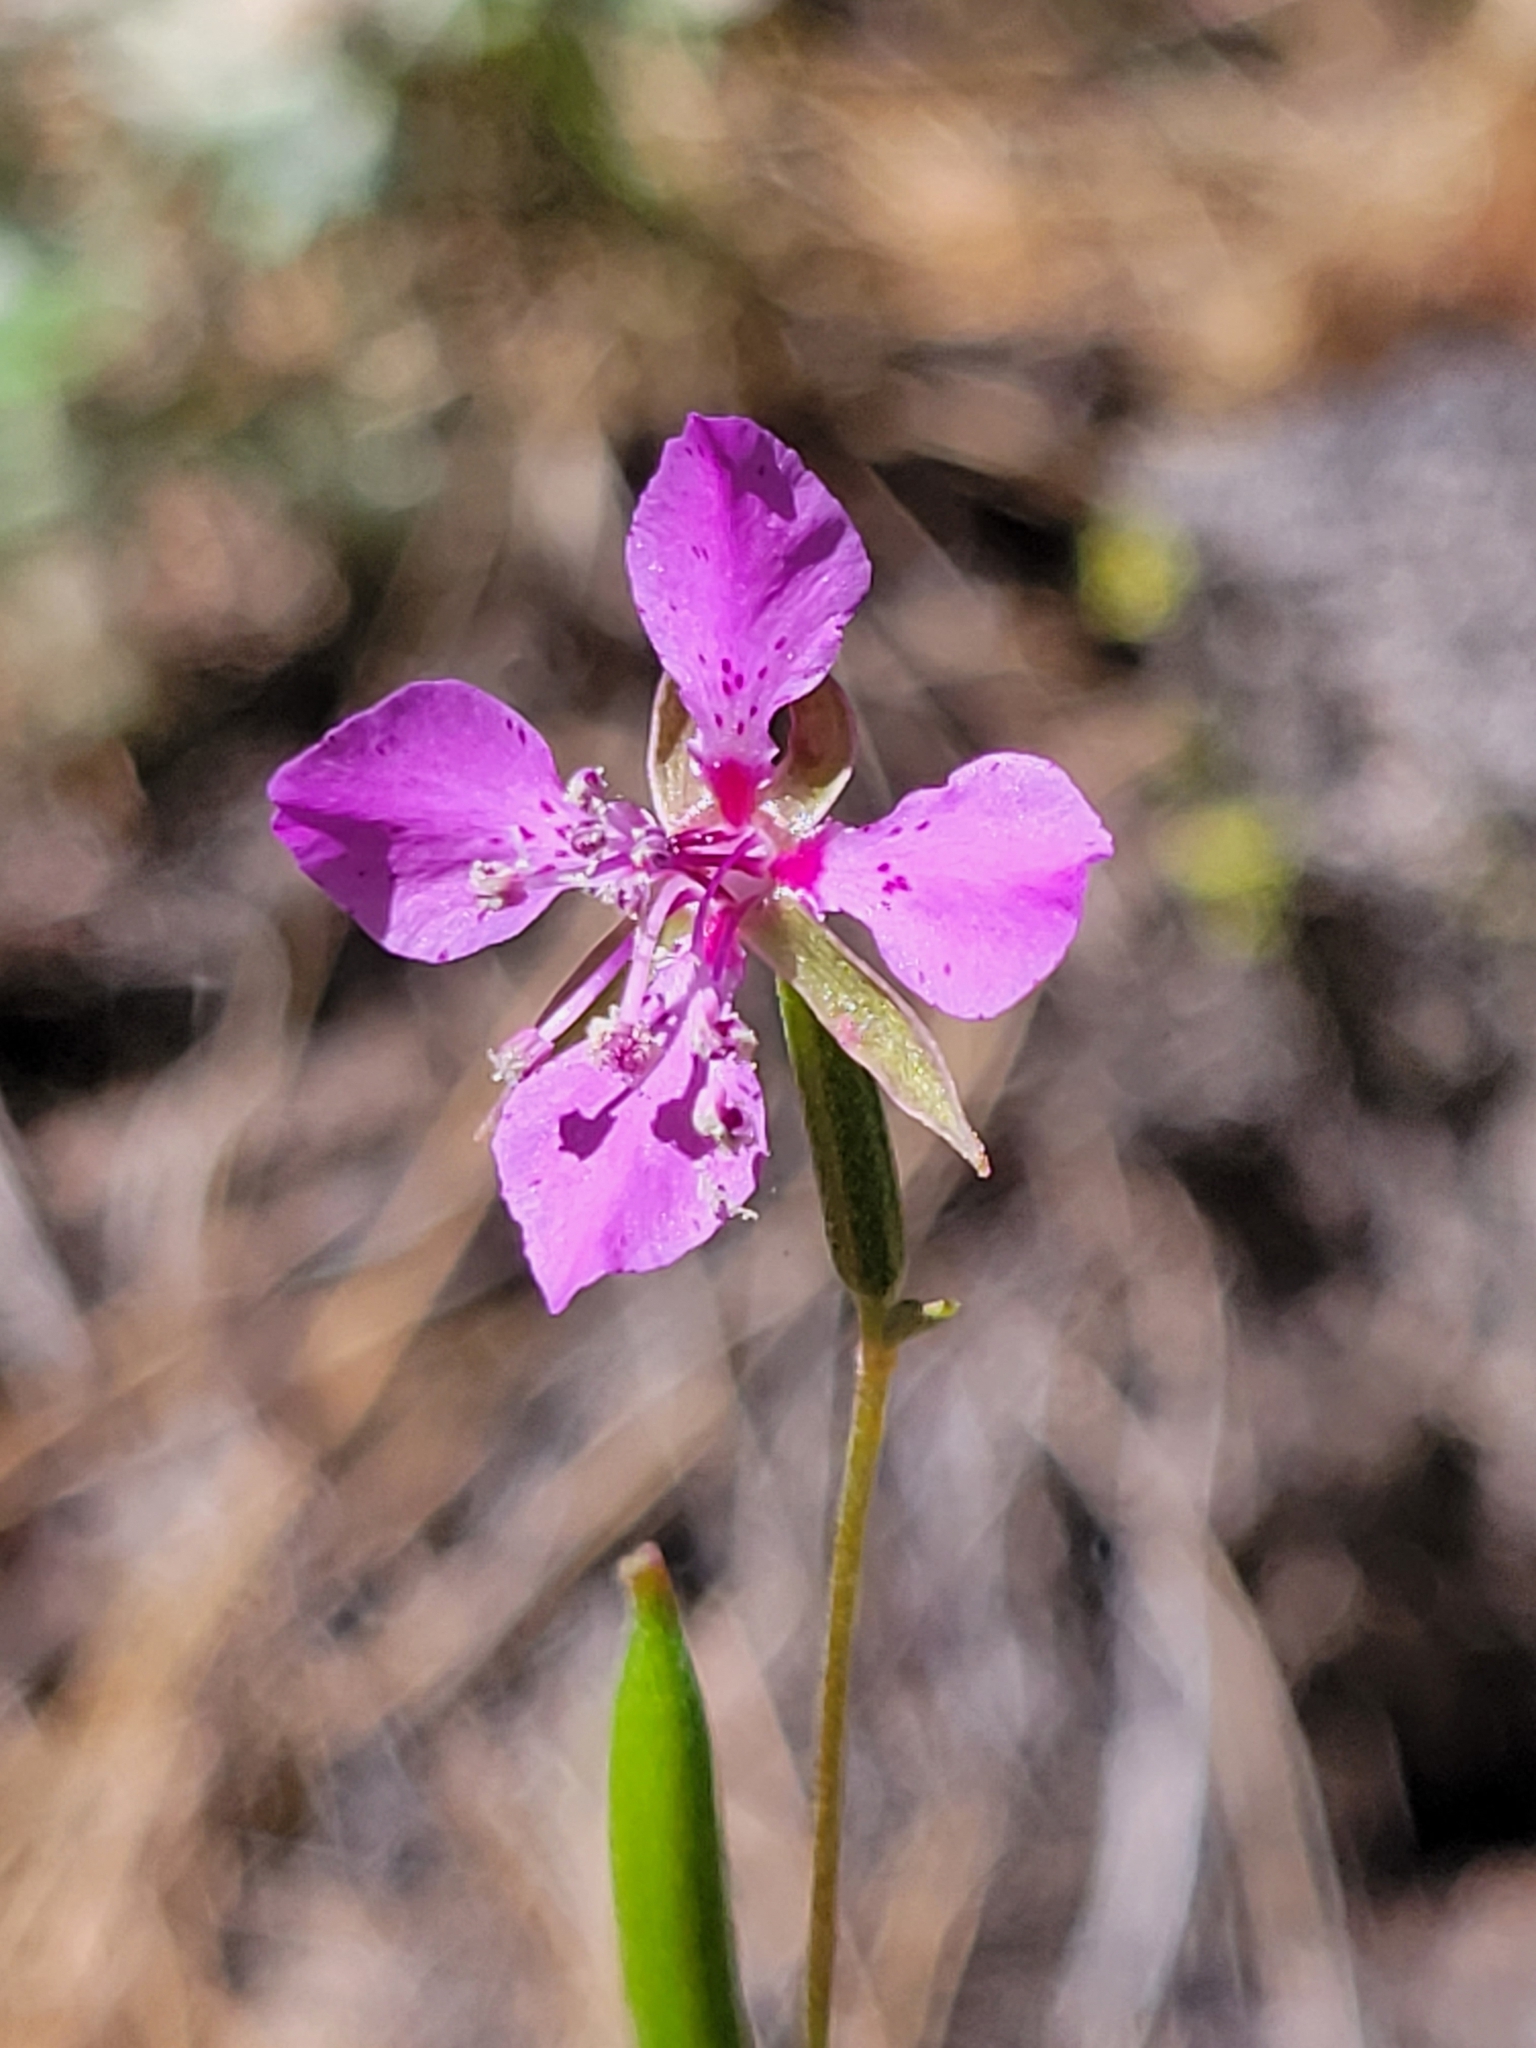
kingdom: Plantae
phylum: Tracheophyta
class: Magnoliopsida
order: Myrtales
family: Onagraceae
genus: Clarkia
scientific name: Clarkia rhomboidea
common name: Broadleaf clarkia
